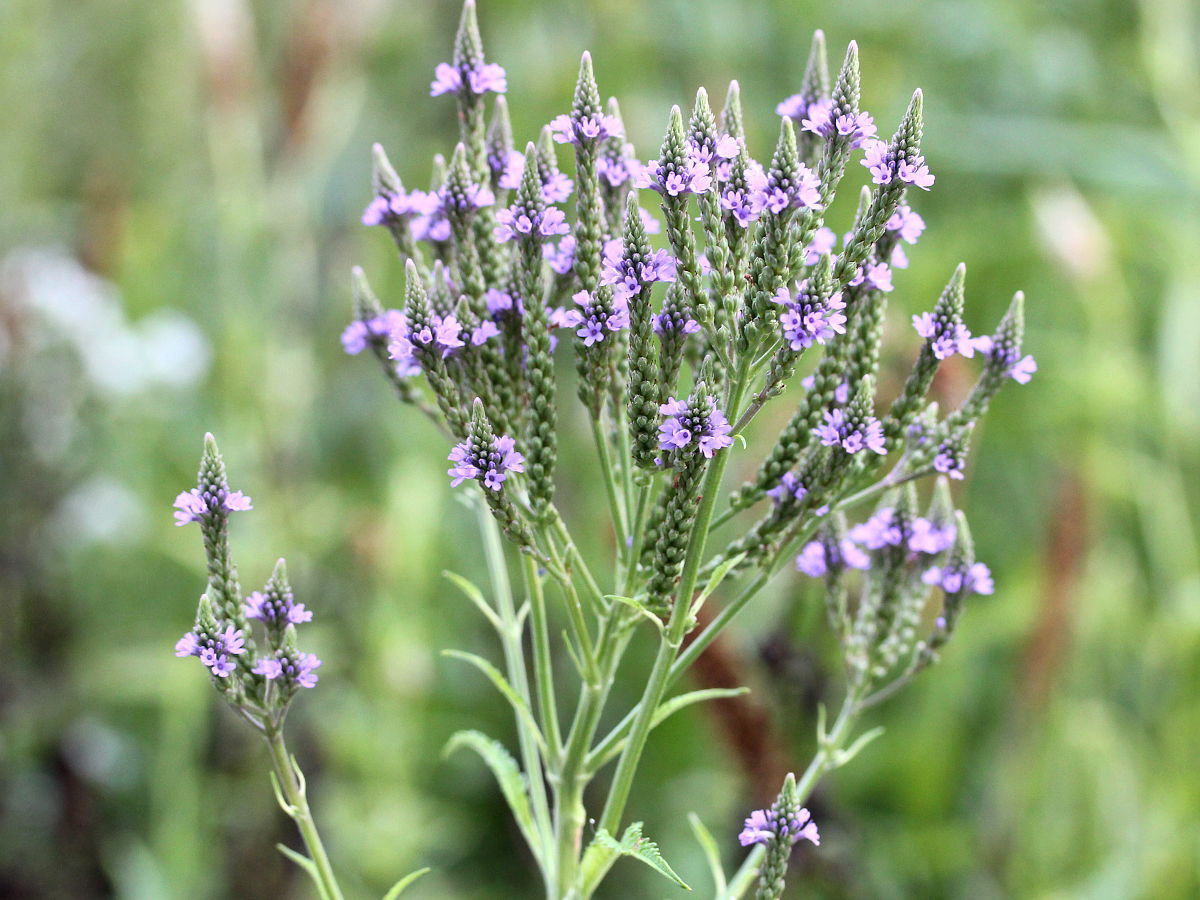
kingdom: Plantae
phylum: Tracheophyta
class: Magnoliopsida
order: Lamiales
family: Verbenaceae
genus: Verbena
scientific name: Verbena hastata
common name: American blue vervain
